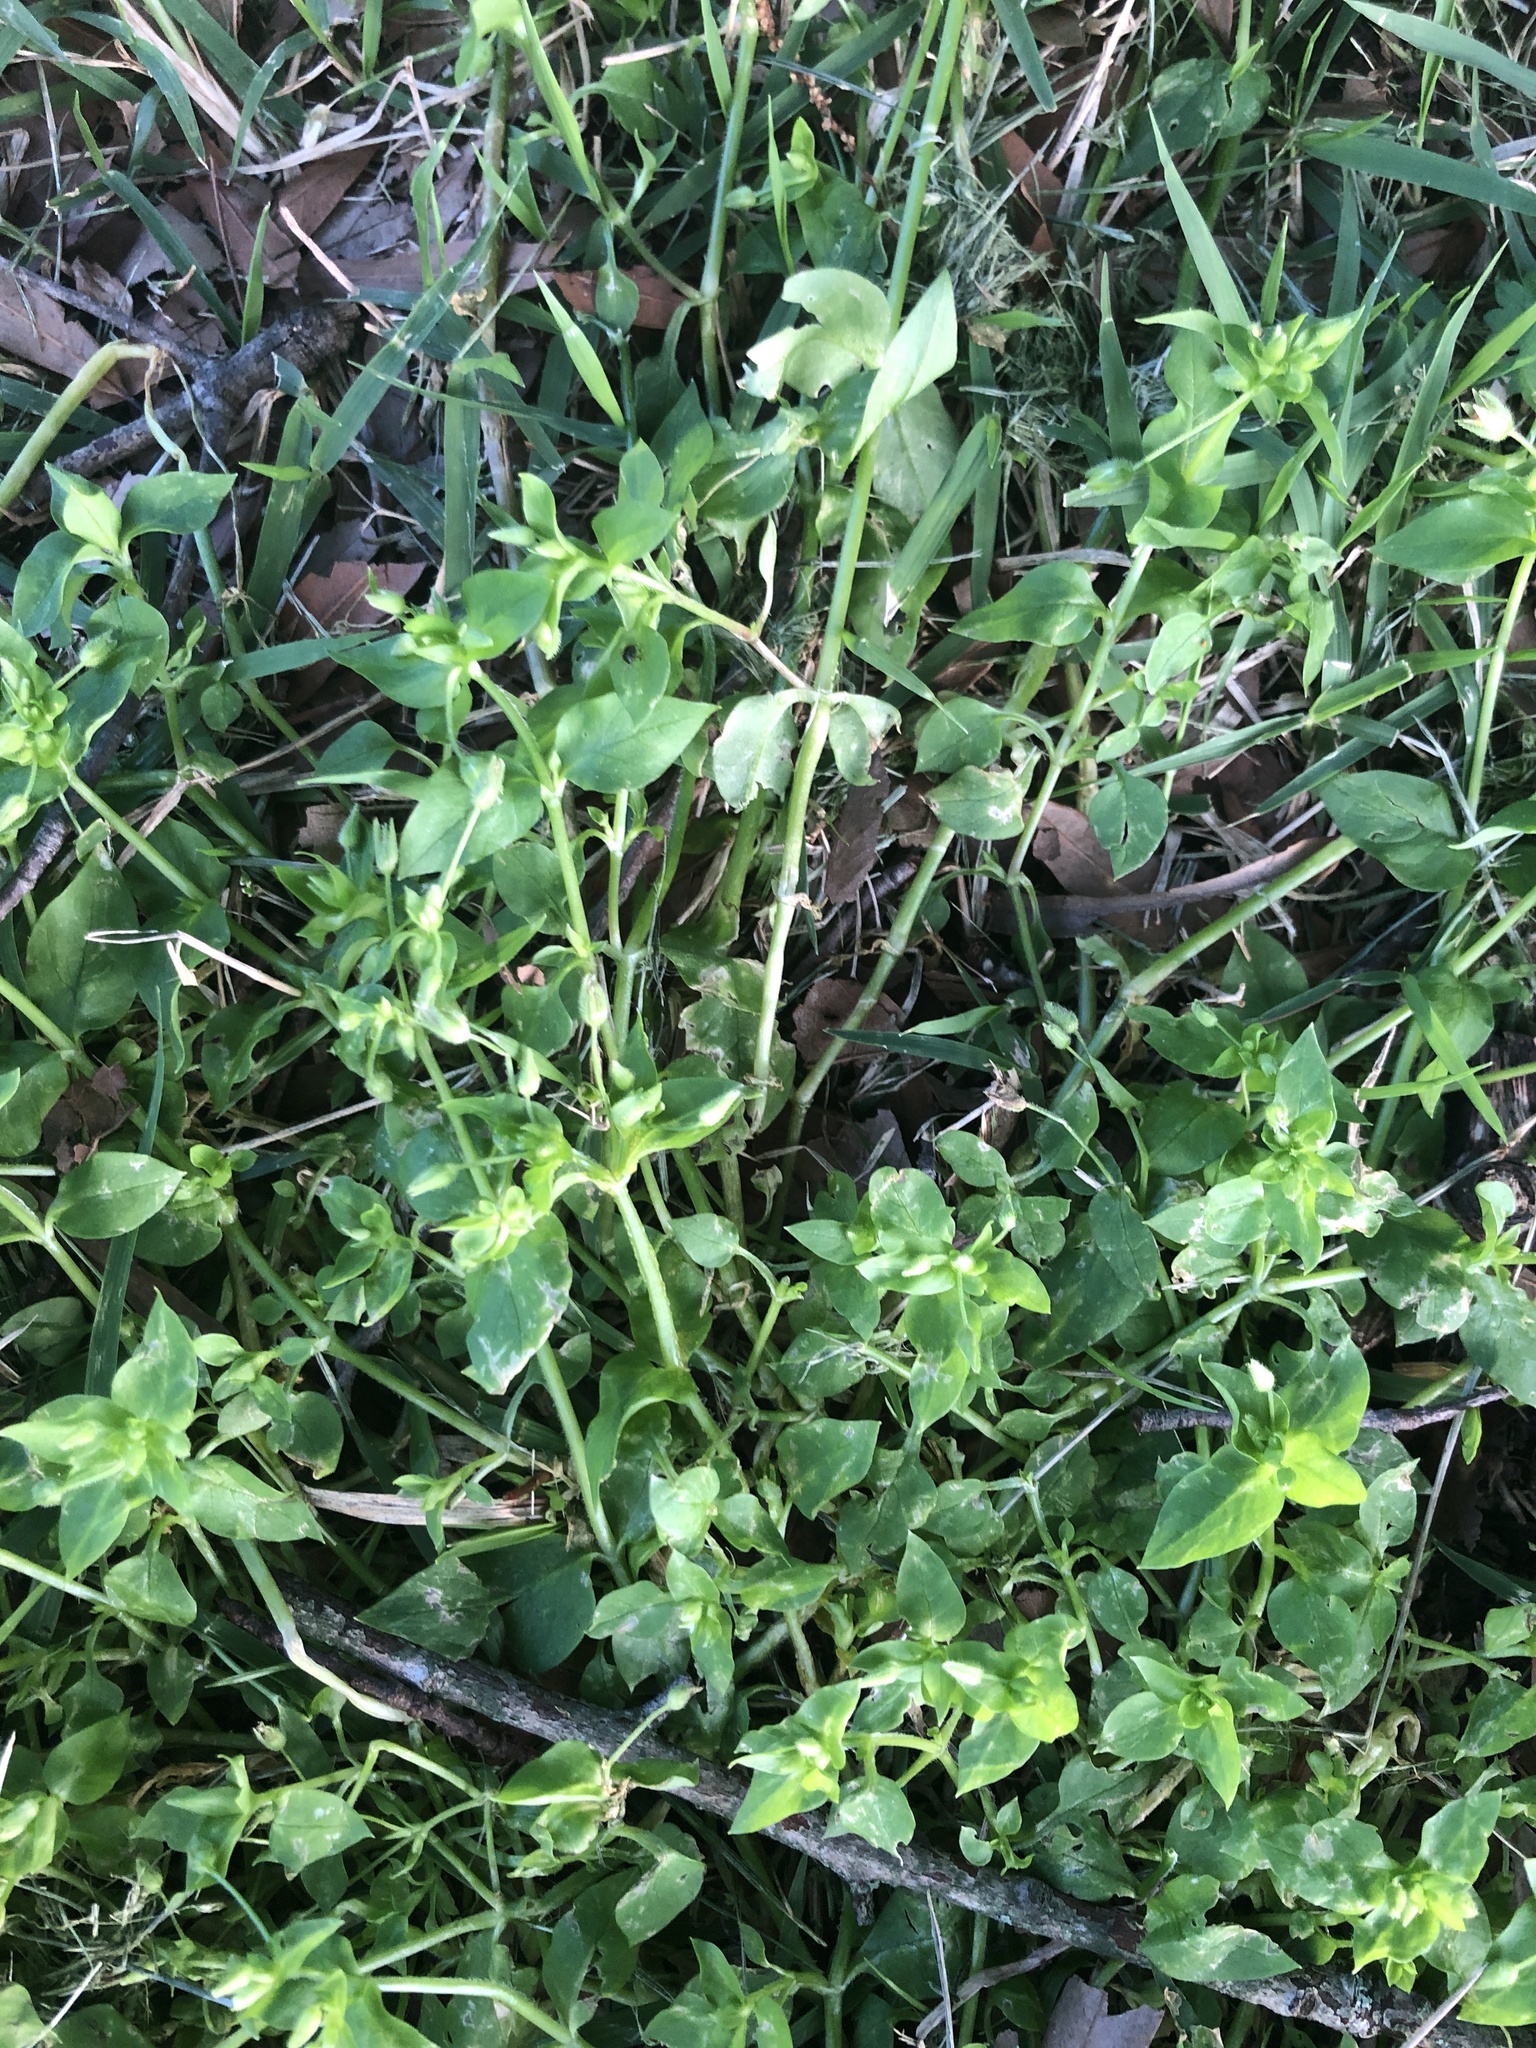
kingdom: Plantae
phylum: Tracheophyta
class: Magnoliopsida
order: Caryophyllales
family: Caryophyllaceae
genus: Stellaria
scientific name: Stellaria media
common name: Common chickweed
